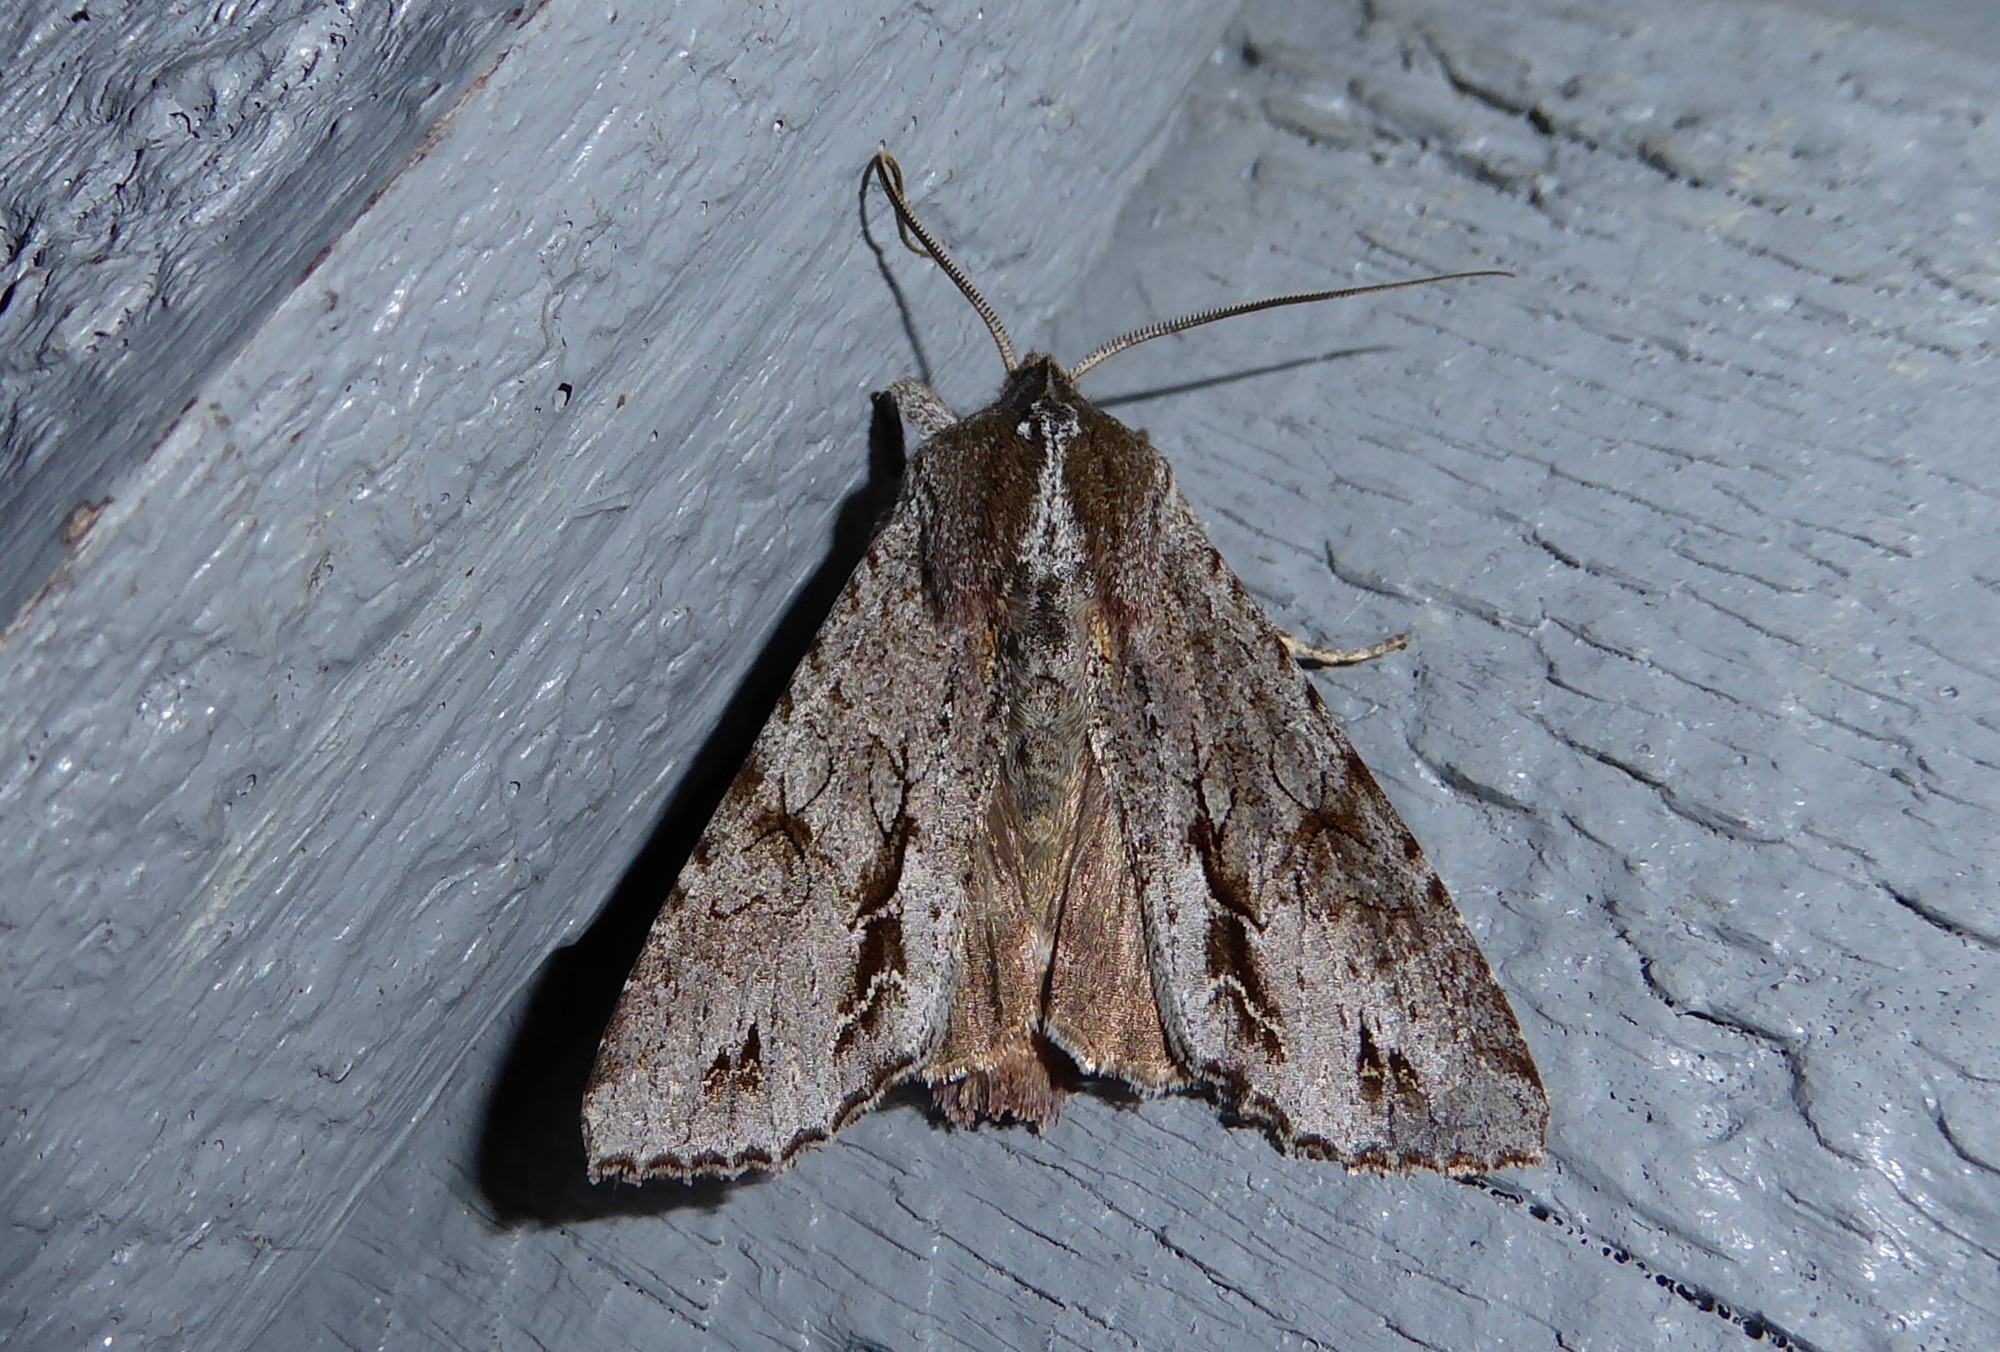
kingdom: Animalia
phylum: Arthropoda
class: Insecta
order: Lepidoptera
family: Noctuidae
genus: Ichneutica
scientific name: Ichneutica
